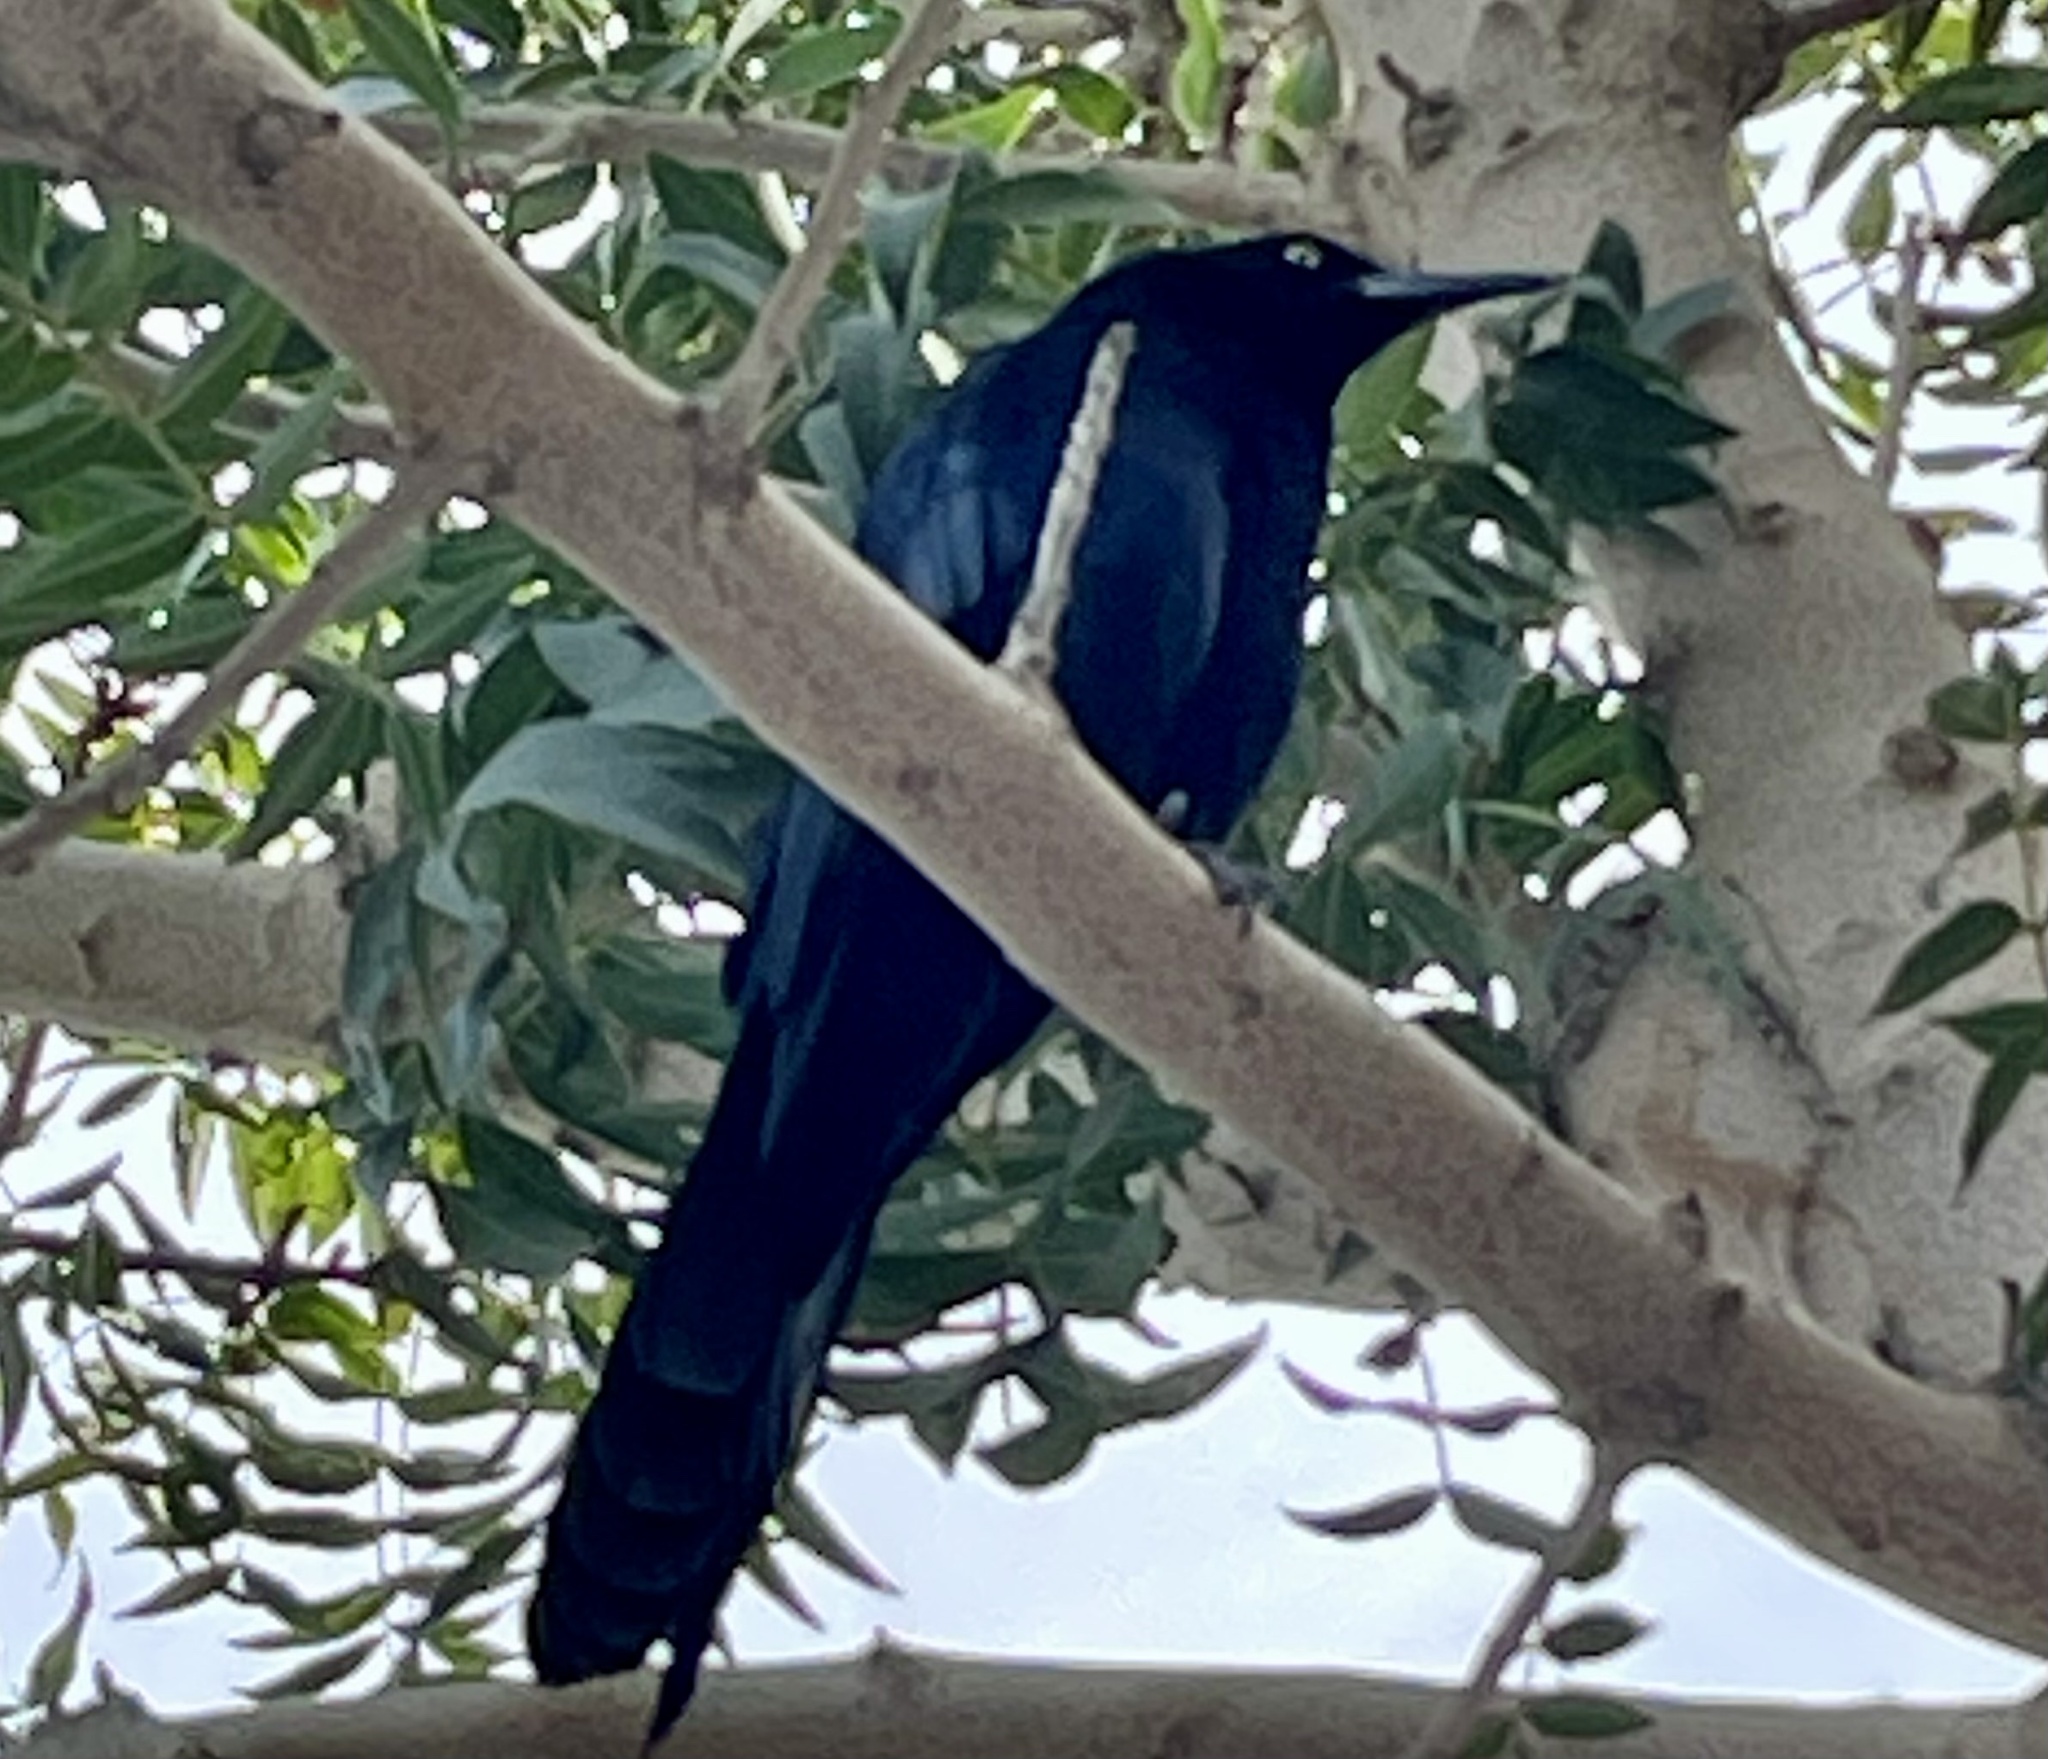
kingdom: Animalia
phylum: Chordata
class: Aves
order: Passeriformes
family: Icteridae
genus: Quiscalus
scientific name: Quiscalus mexicanus
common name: Great-tailed grackle
